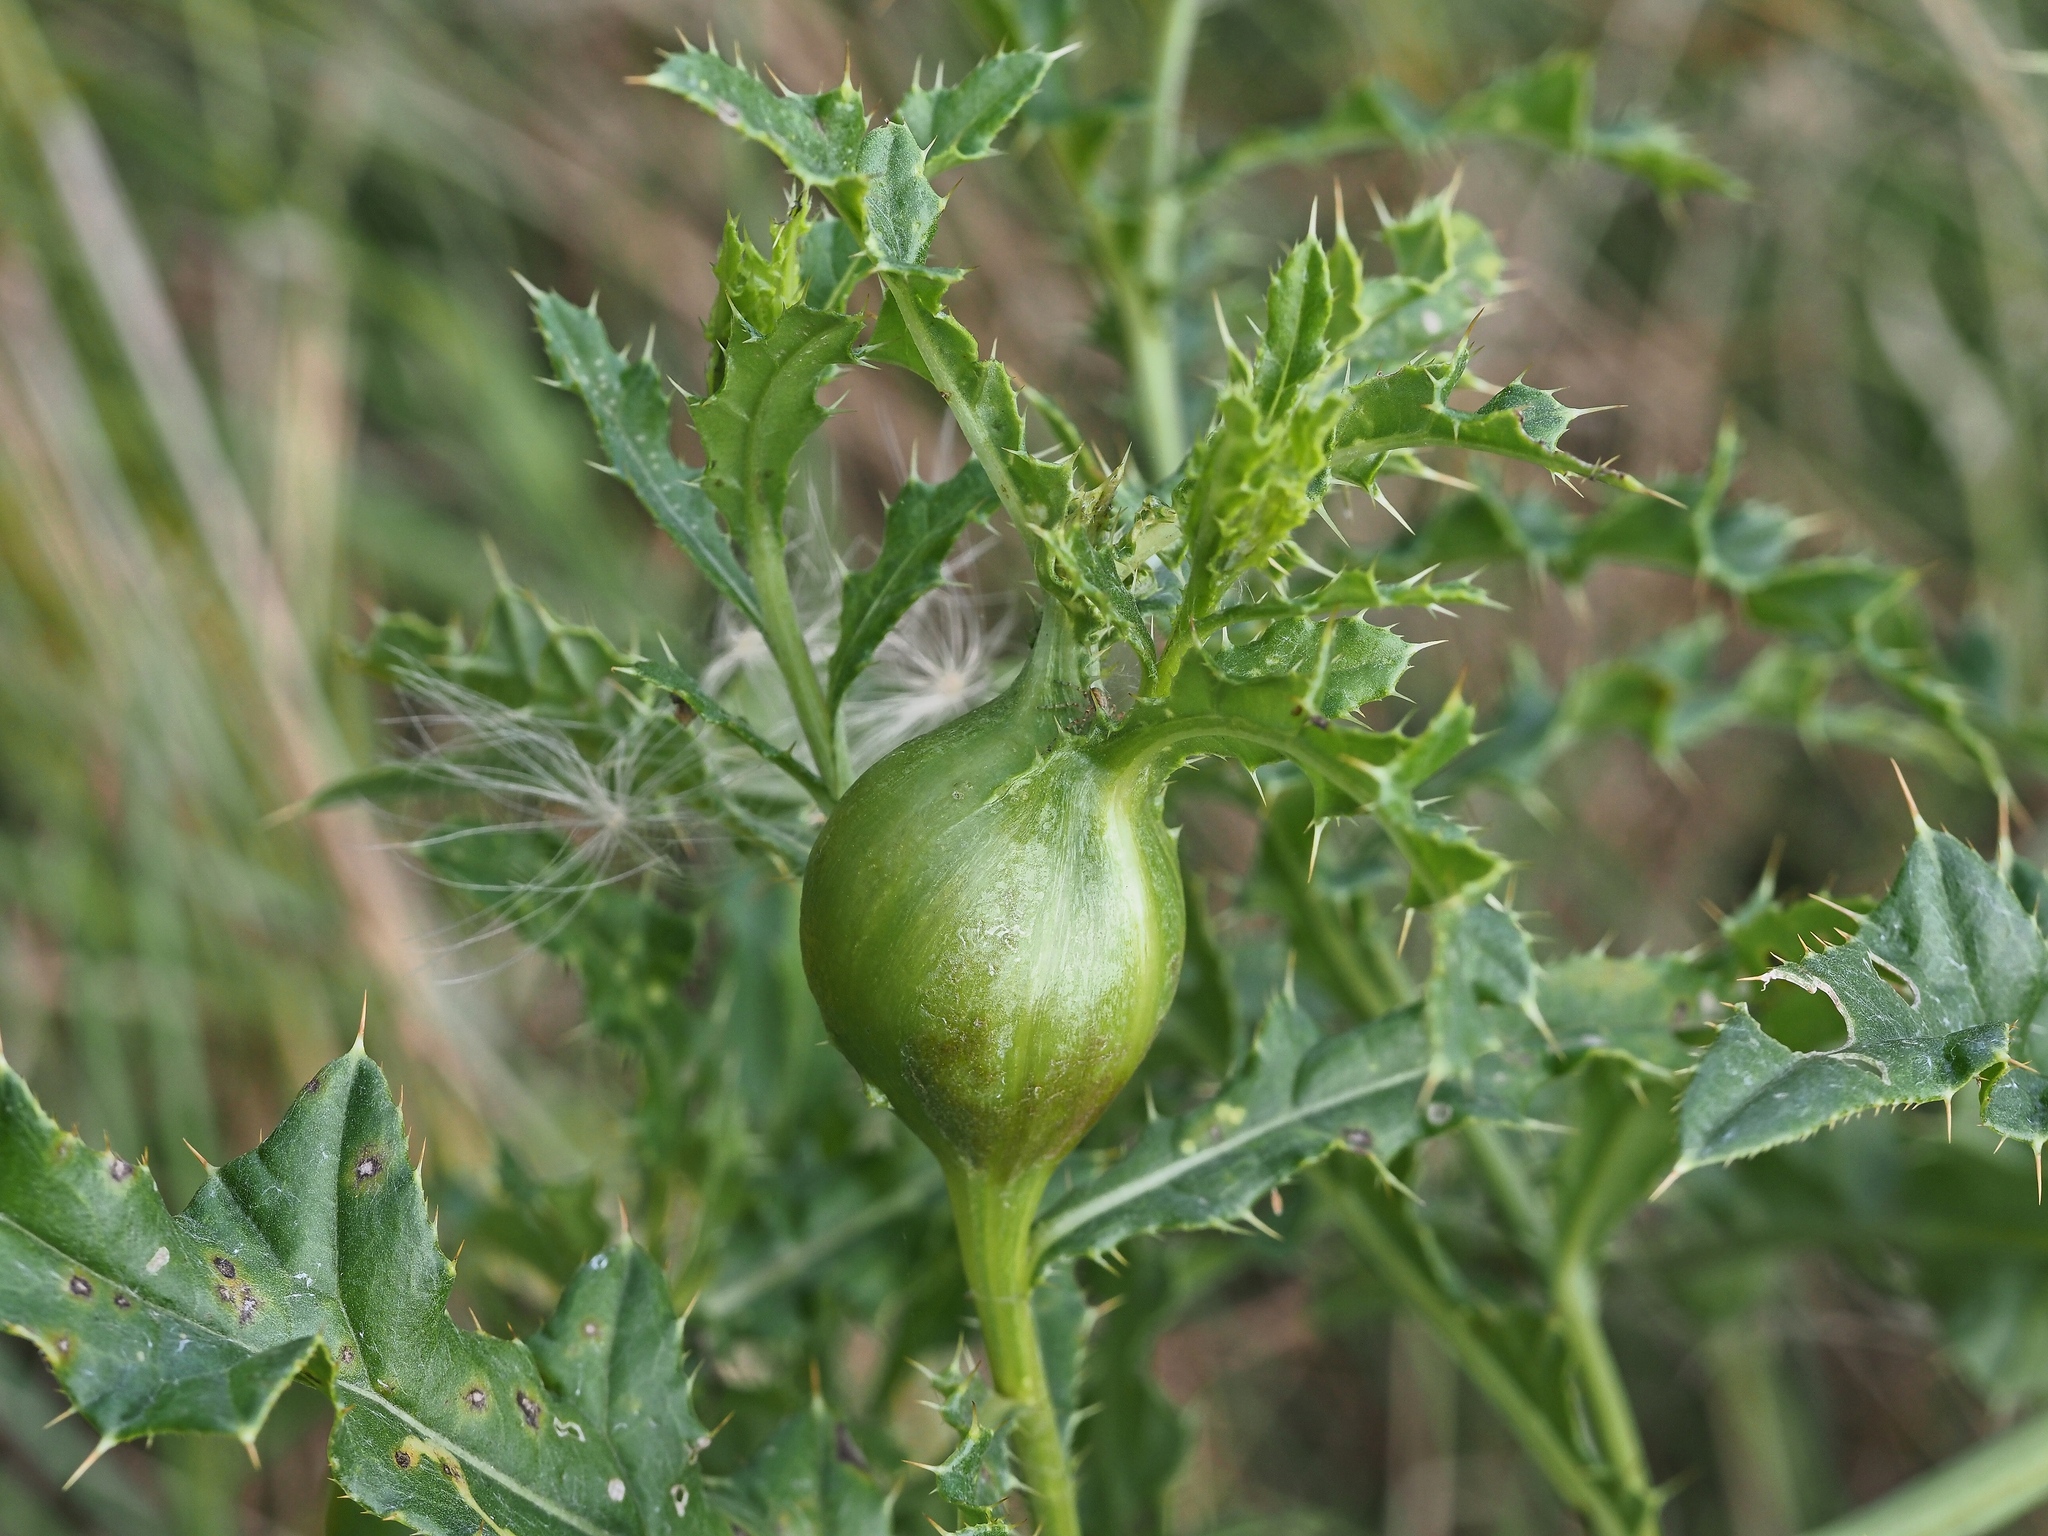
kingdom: Animalia
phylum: Arthropoda
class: Insecta
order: Diptera
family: Tephritidae
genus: Urophora
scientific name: Urophora cardui
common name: Fruit fly
